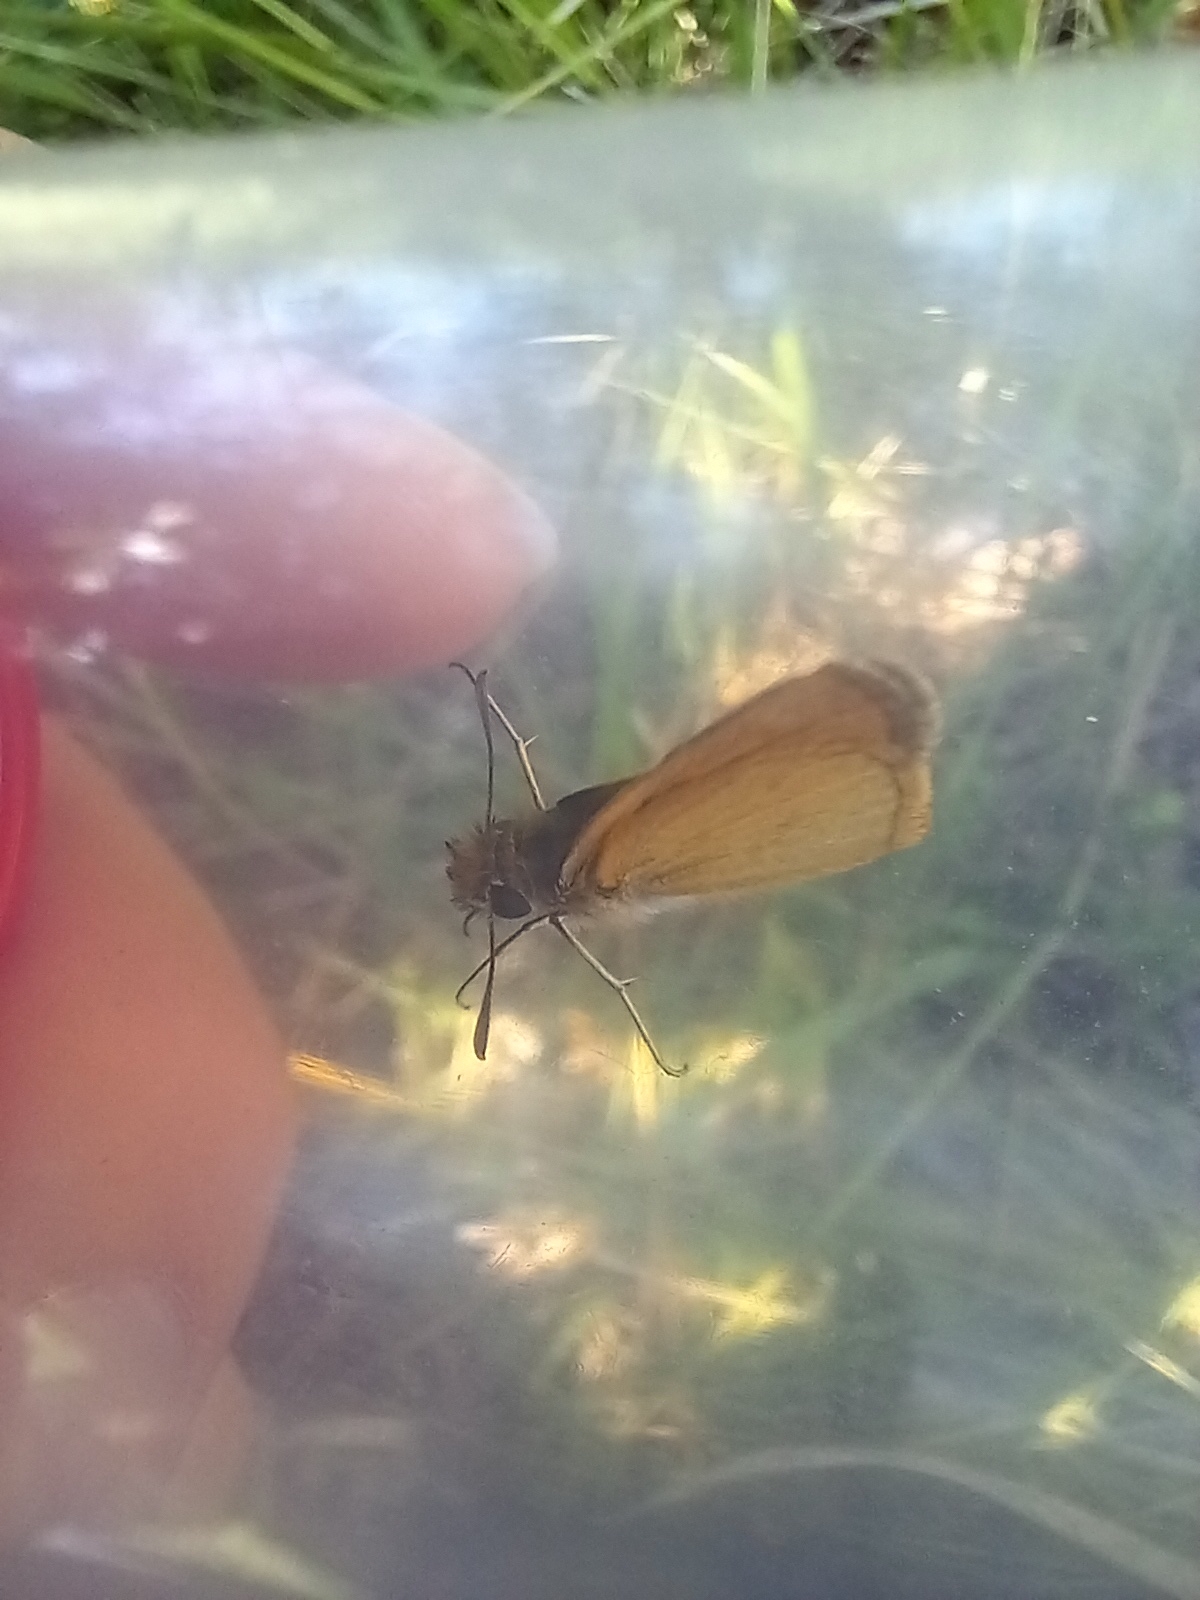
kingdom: Animalia
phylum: Arthropoda
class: Insecta
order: Lepidoptera
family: Hesperiidae
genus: Thymelicus
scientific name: Thymelicus acteon
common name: Lulworth skipper
